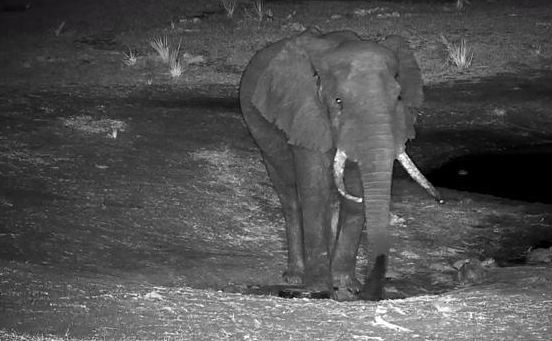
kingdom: Animalia
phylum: Chordata
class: Mammalia
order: Proboscidea
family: Elephantidae
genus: Loxodonta
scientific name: Loxodonta africana
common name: African elephant
